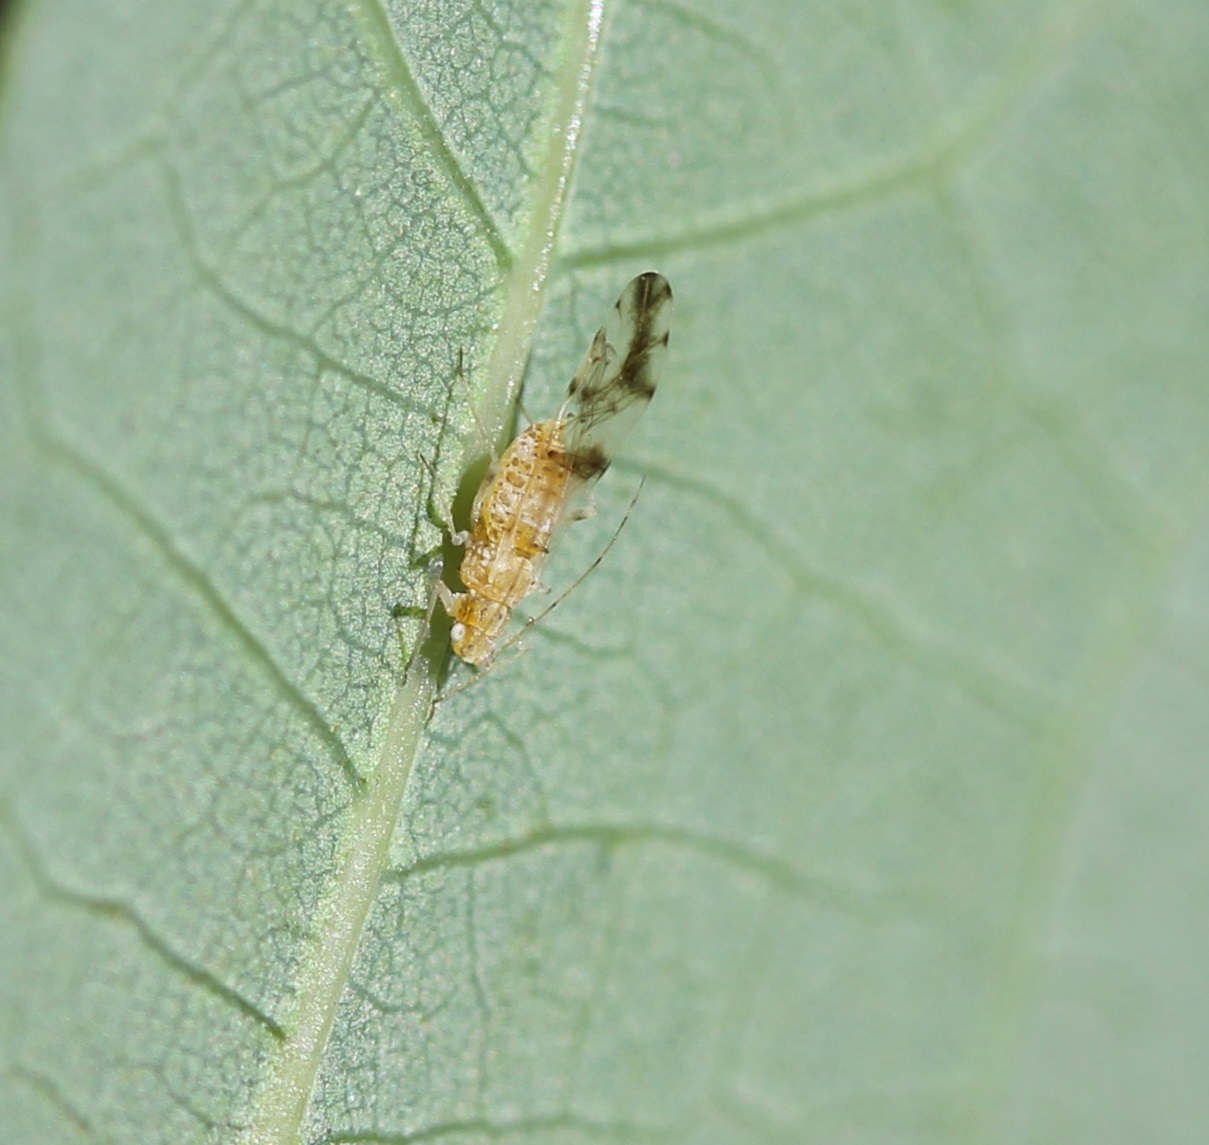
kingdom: Animalia
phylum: Arthropoda
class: Insecta
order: Hemiptera
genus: Neomyzocallis
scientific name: Neomyzocallis
